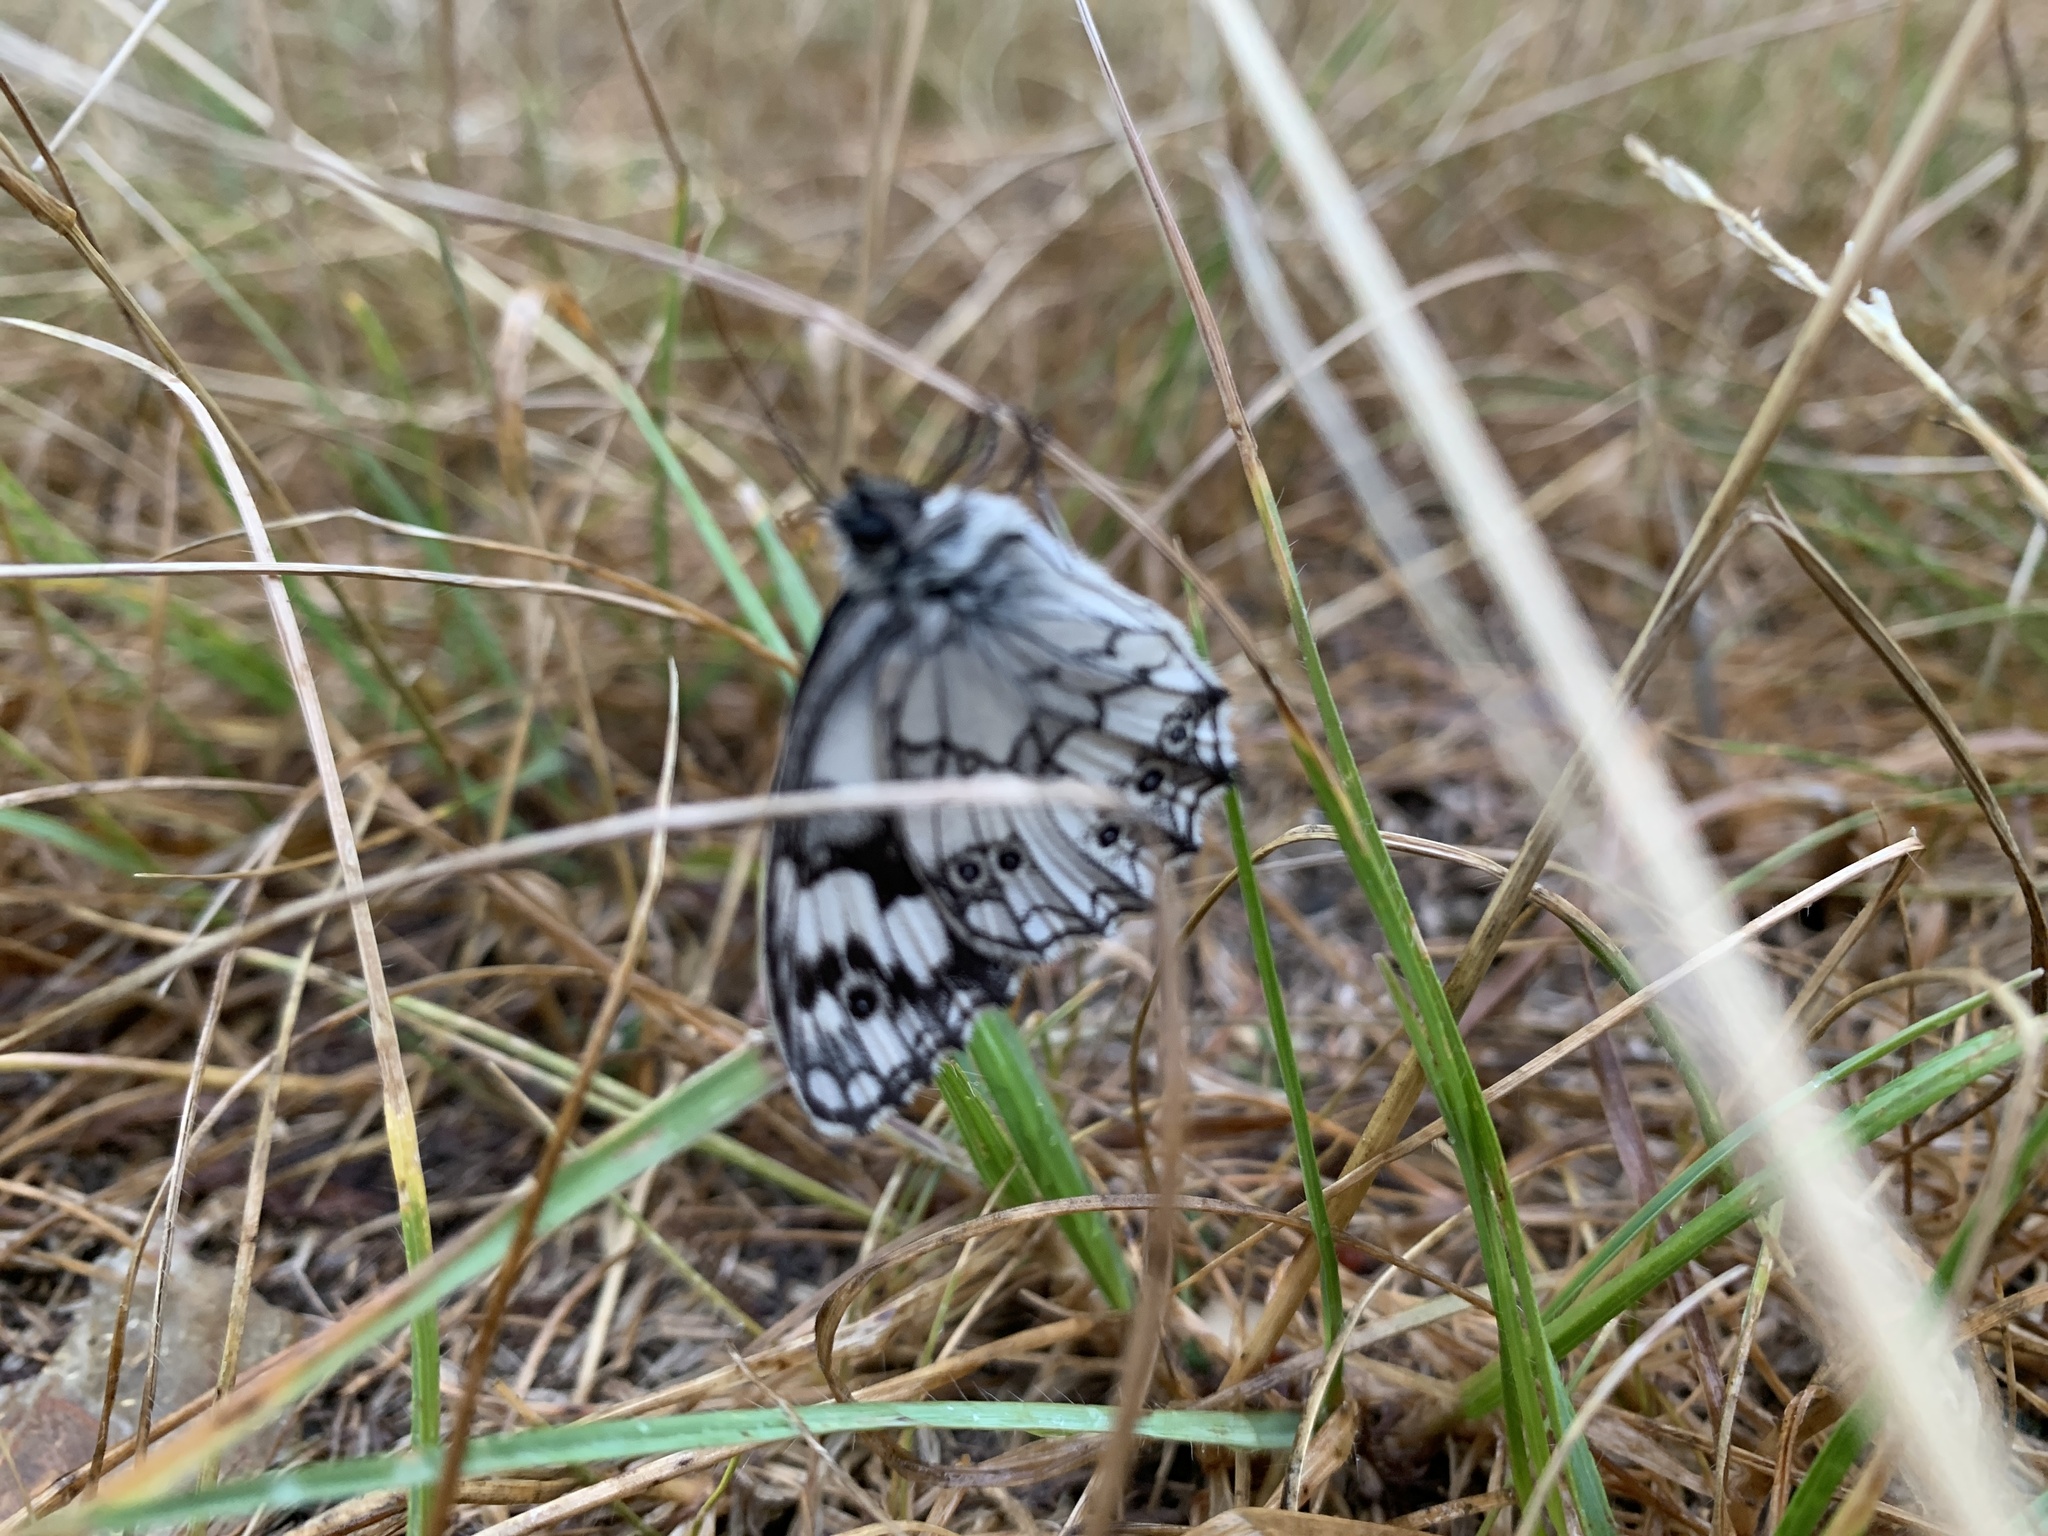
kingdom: Animalia
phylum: Arthropoda
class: Insecta
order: Lepidoptera
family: Nymphalidae
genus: Melanargia
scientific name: Melanargia galathea
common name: Marbled white
